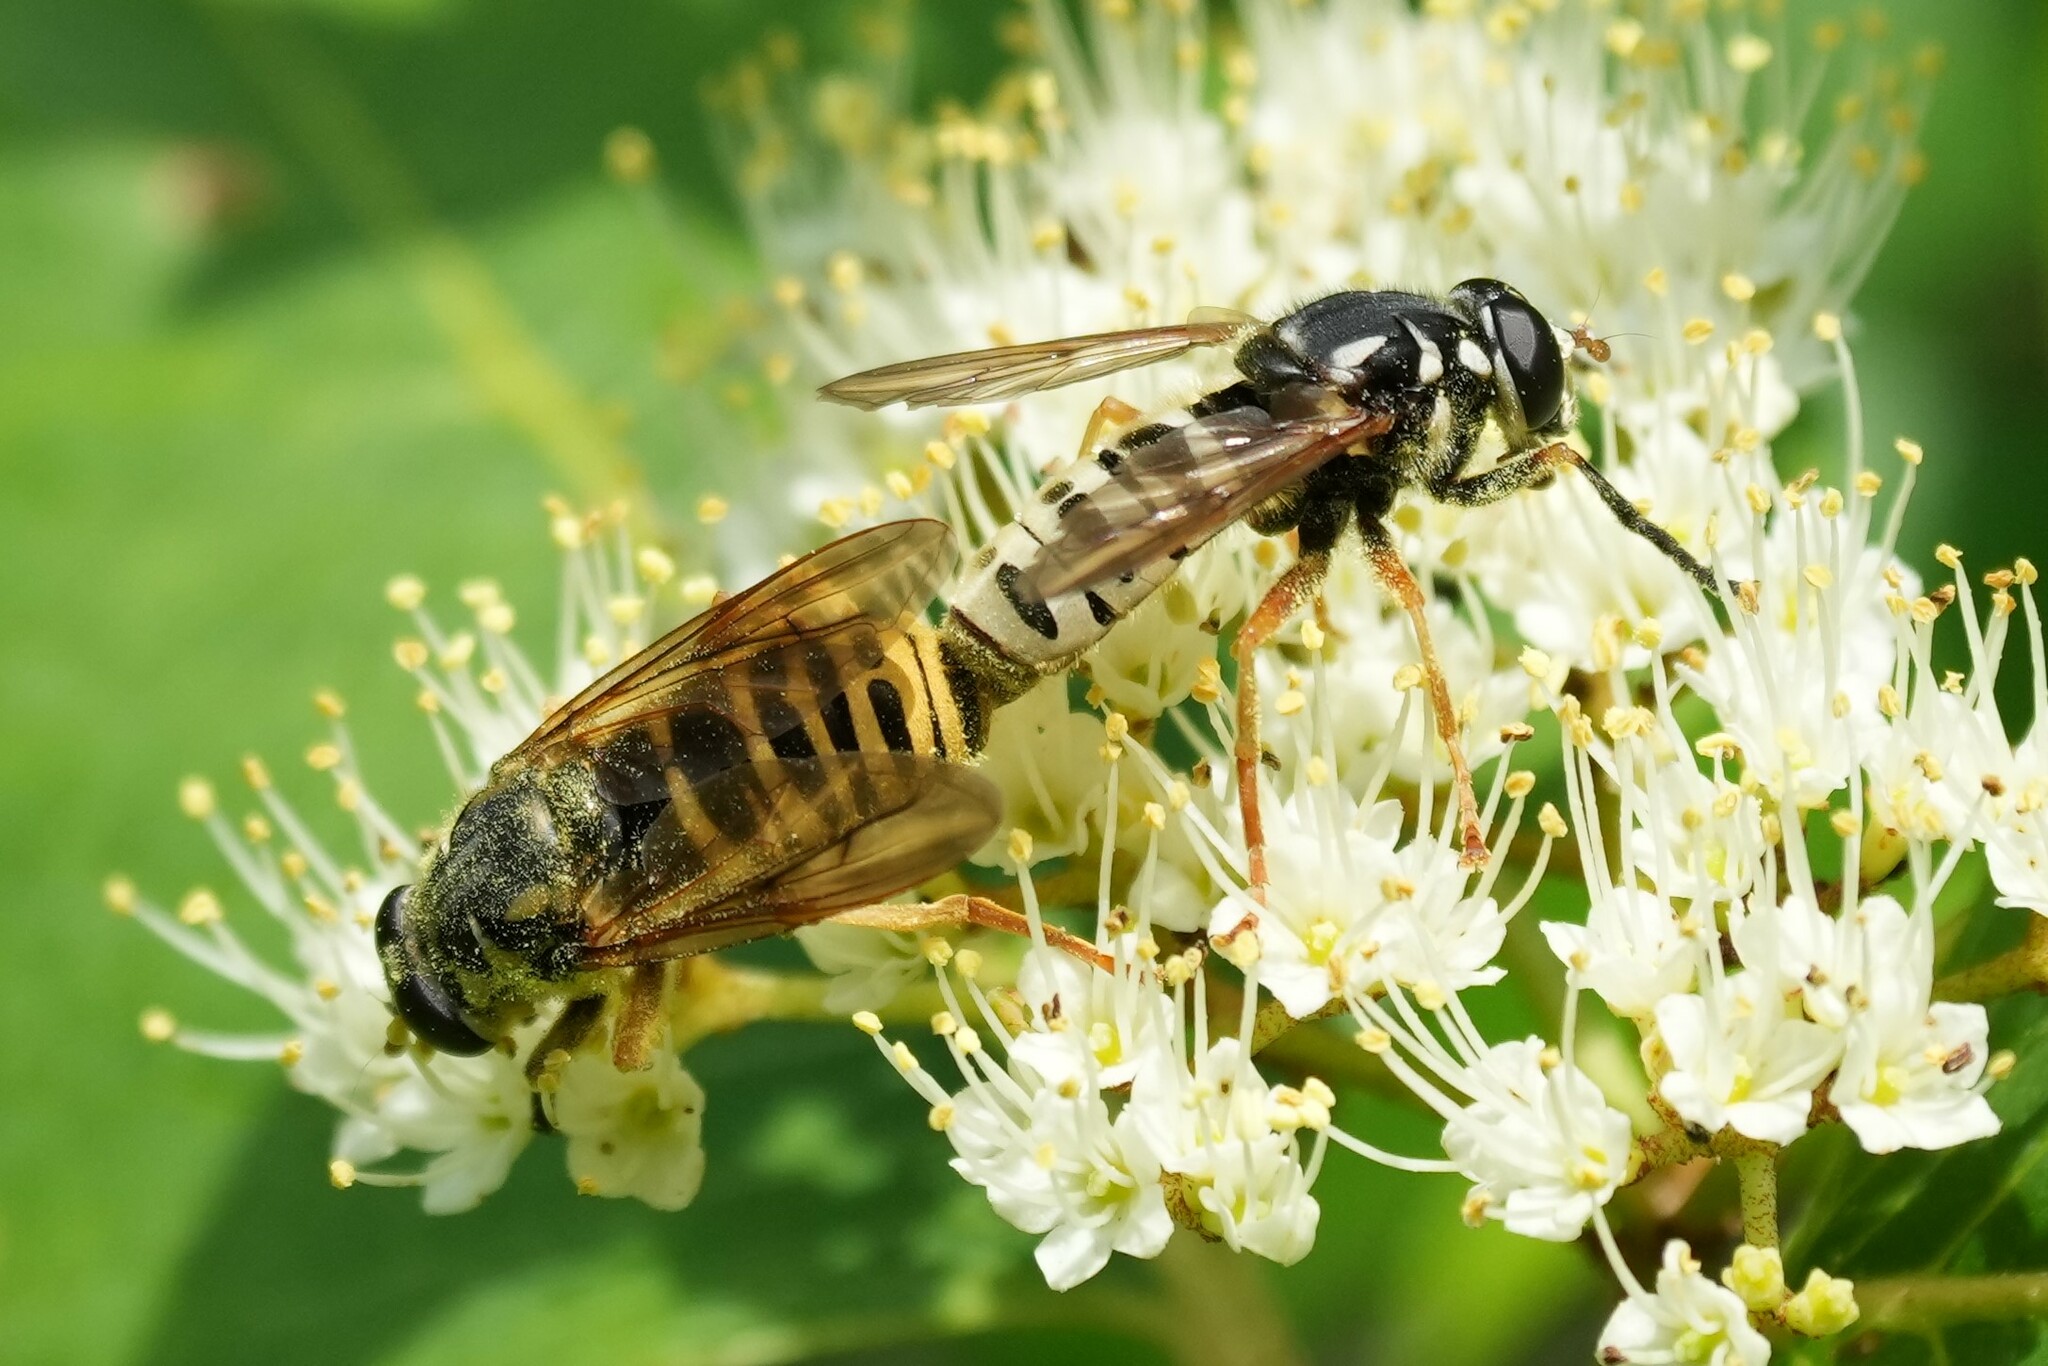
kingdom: Animalia
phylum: Arthropoda
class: Insecta
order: Diptera
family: Syrphidae
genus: Temnostoma
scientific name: Temnostoma excentricum
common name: Black-spotted falsehorn
